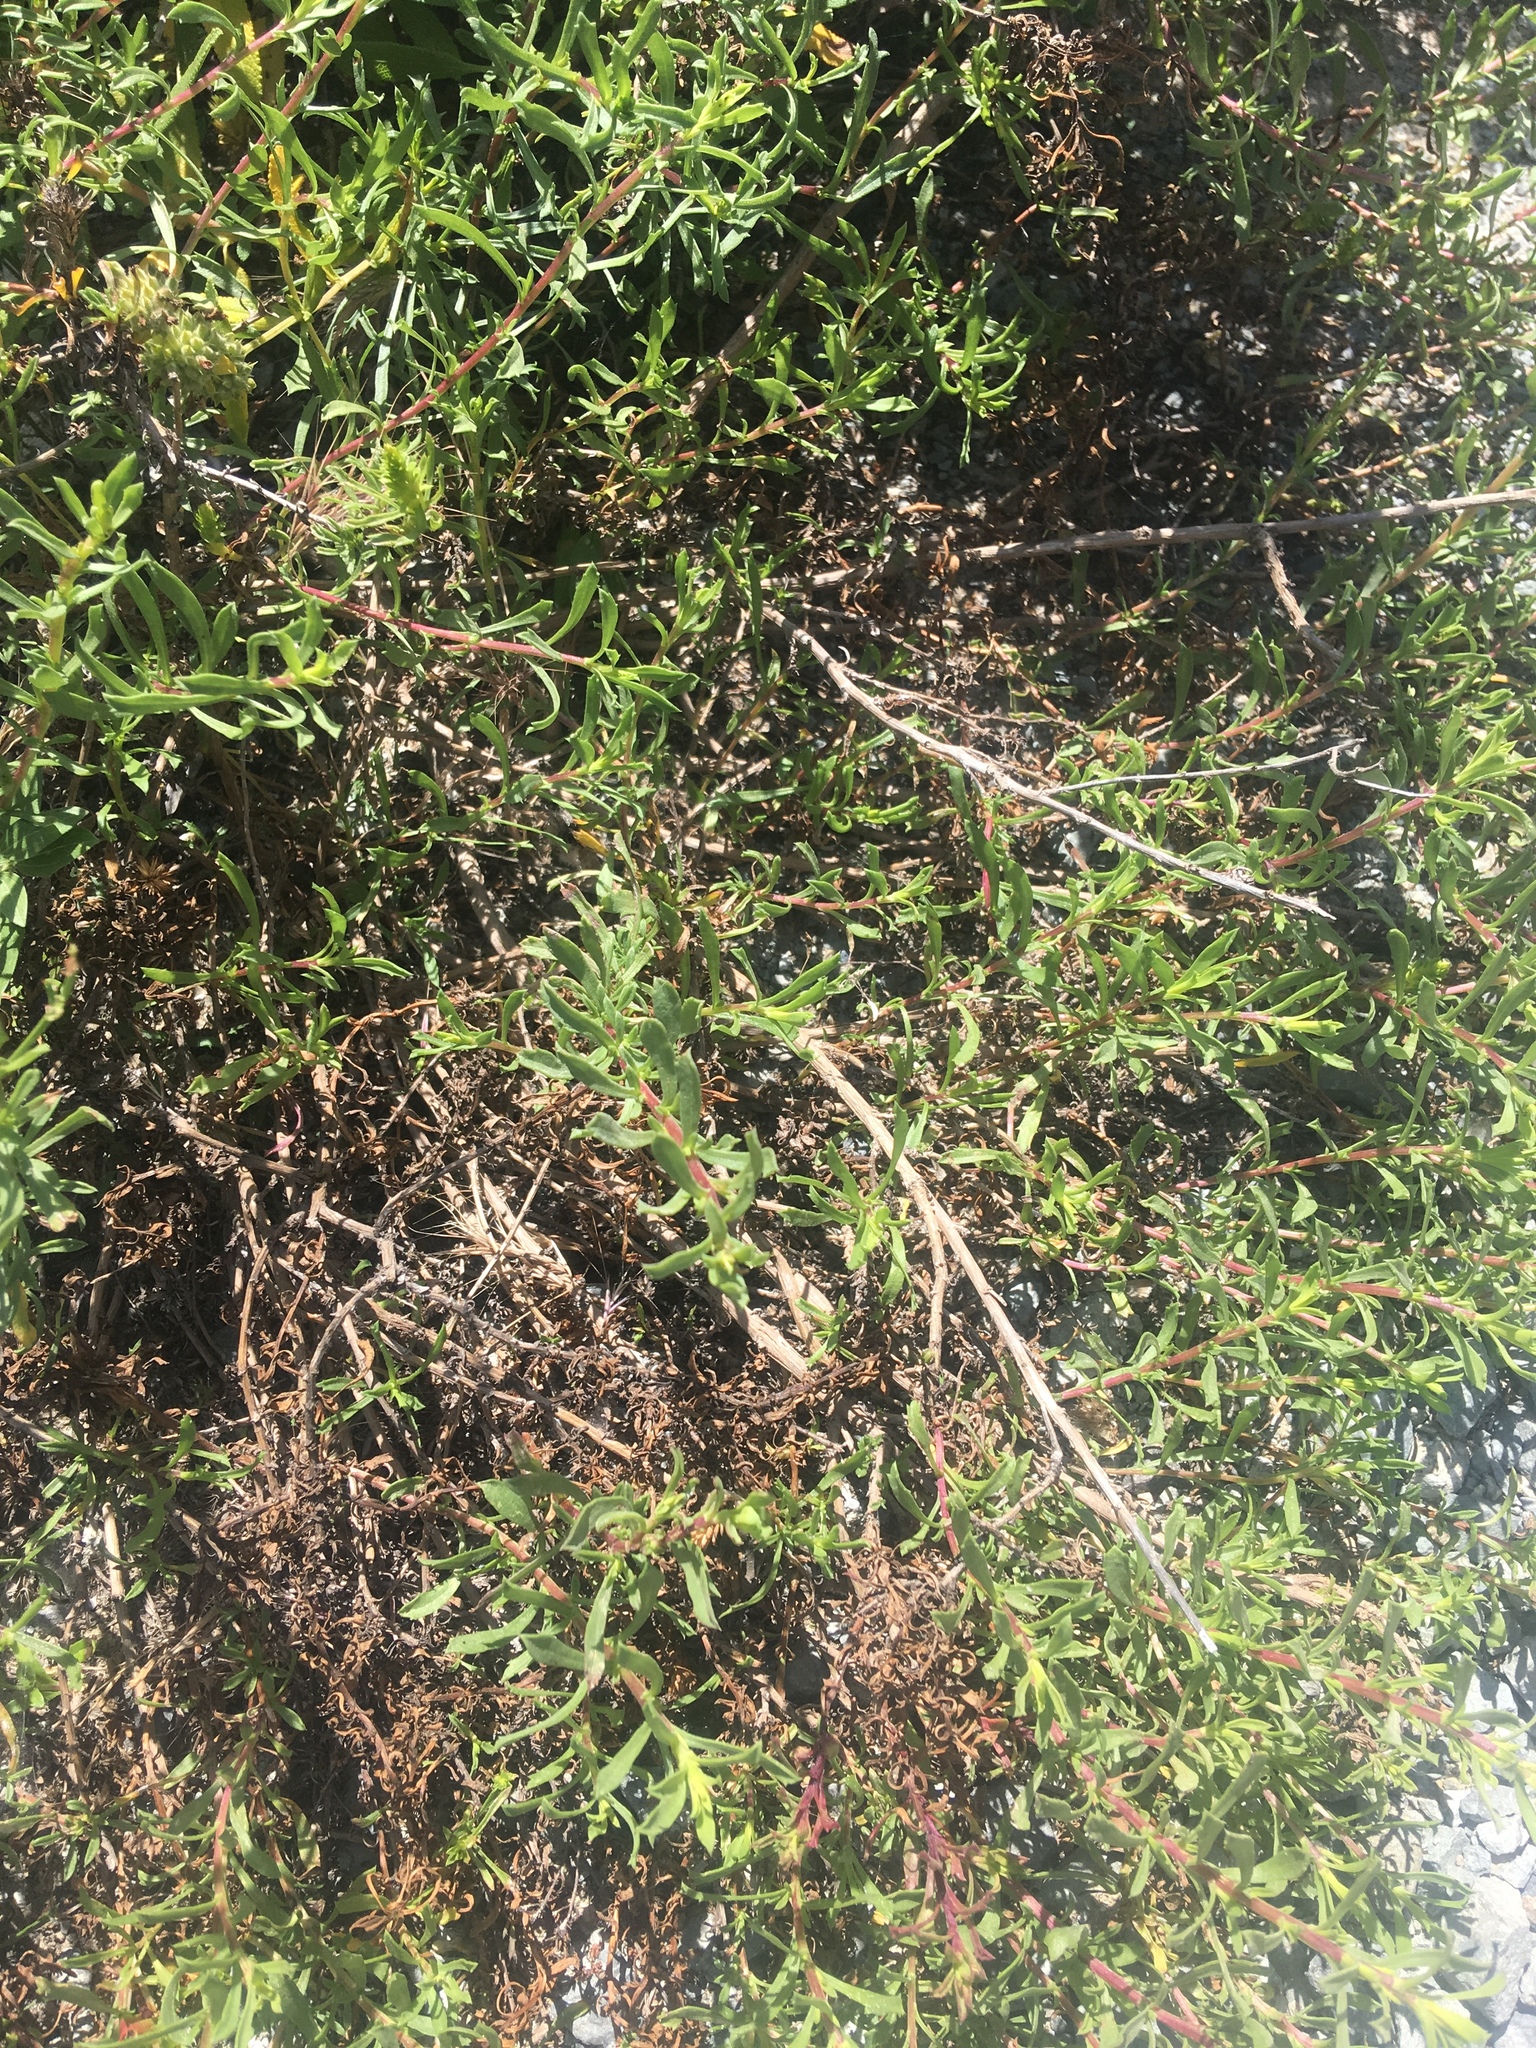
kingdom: Plantae
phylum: Tracheophyta
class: Magnoliopsida
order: Asterales
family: Asteraceae
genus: Isocoma
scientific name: Isocoma menziesii
